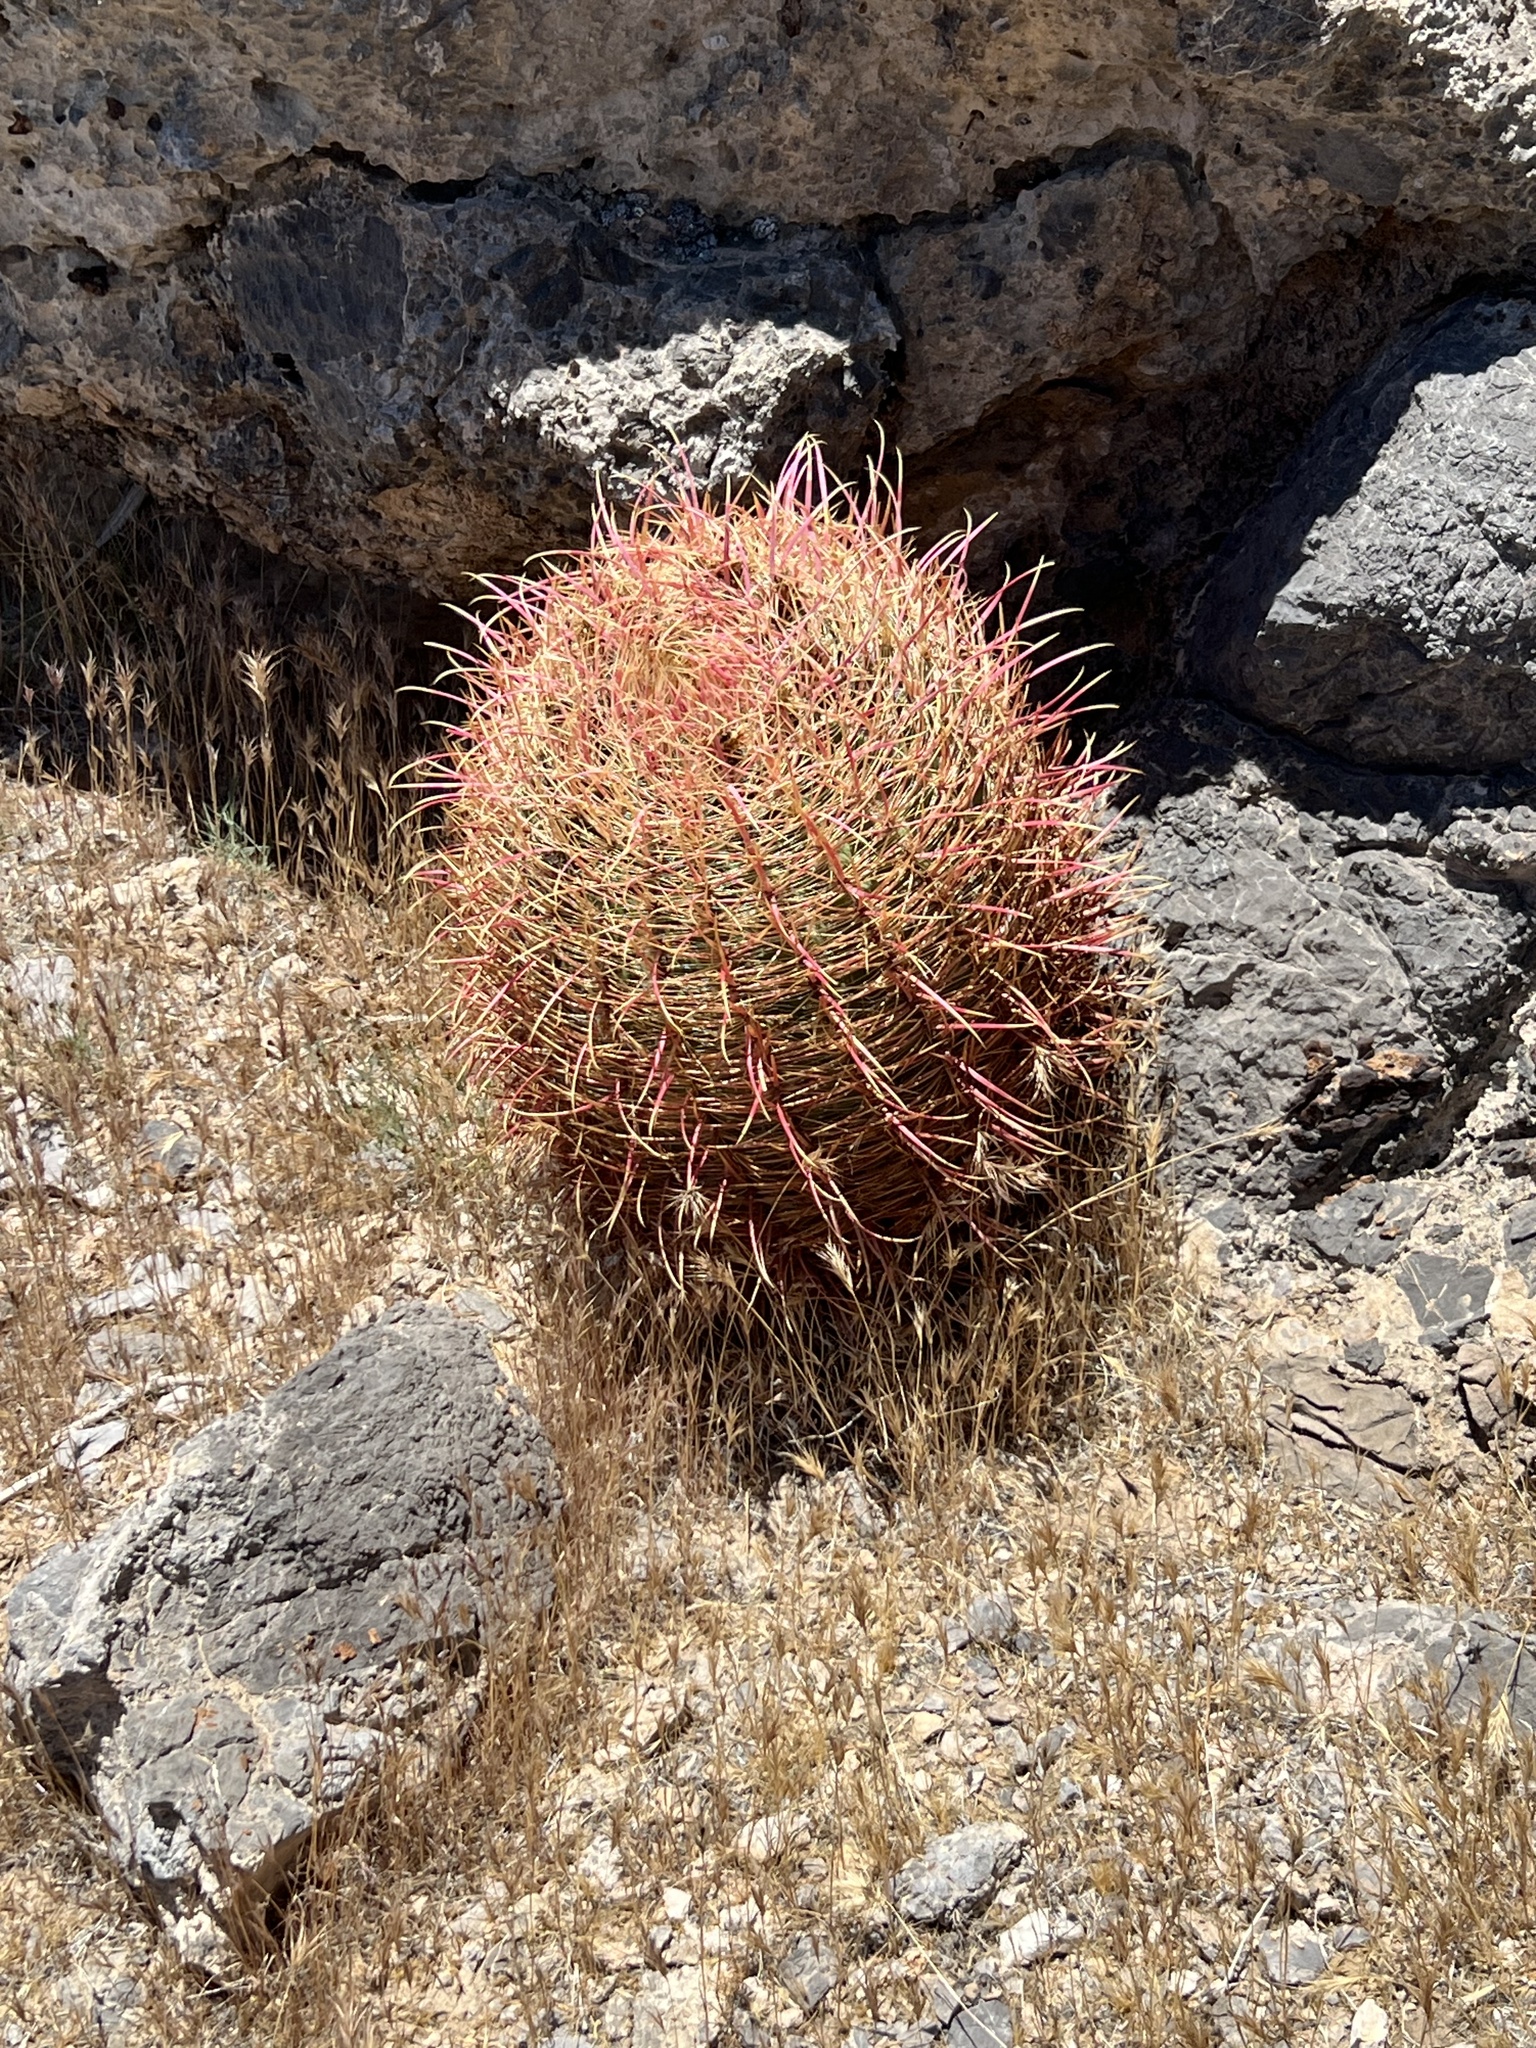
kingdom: Plantae
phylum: Tracheophyta
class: Magnoliopsida
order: Caryophyllales
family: Cactaceae
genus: Ferocactus
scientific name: Ferocactus cylindraceus
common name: California barrel cactus
